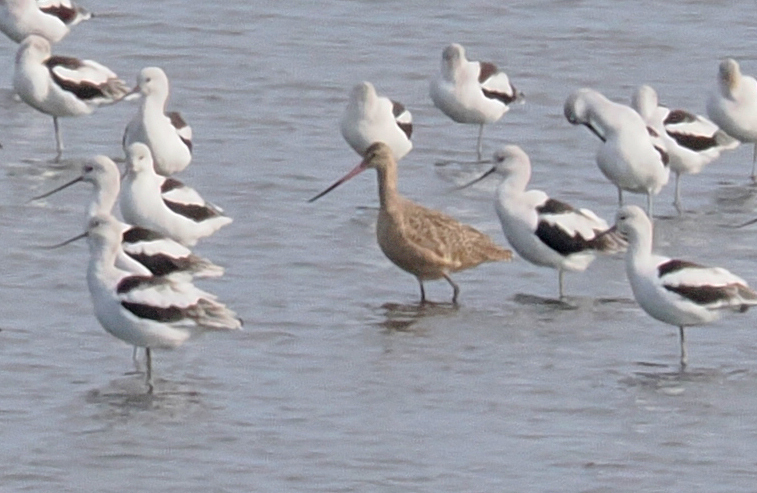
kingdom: Animalia
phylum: Chordata
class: Aves
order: Charadriiformes
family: Scolopacidae
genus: Limosa
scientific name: Limosa fedoa
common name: Marbled godwit
